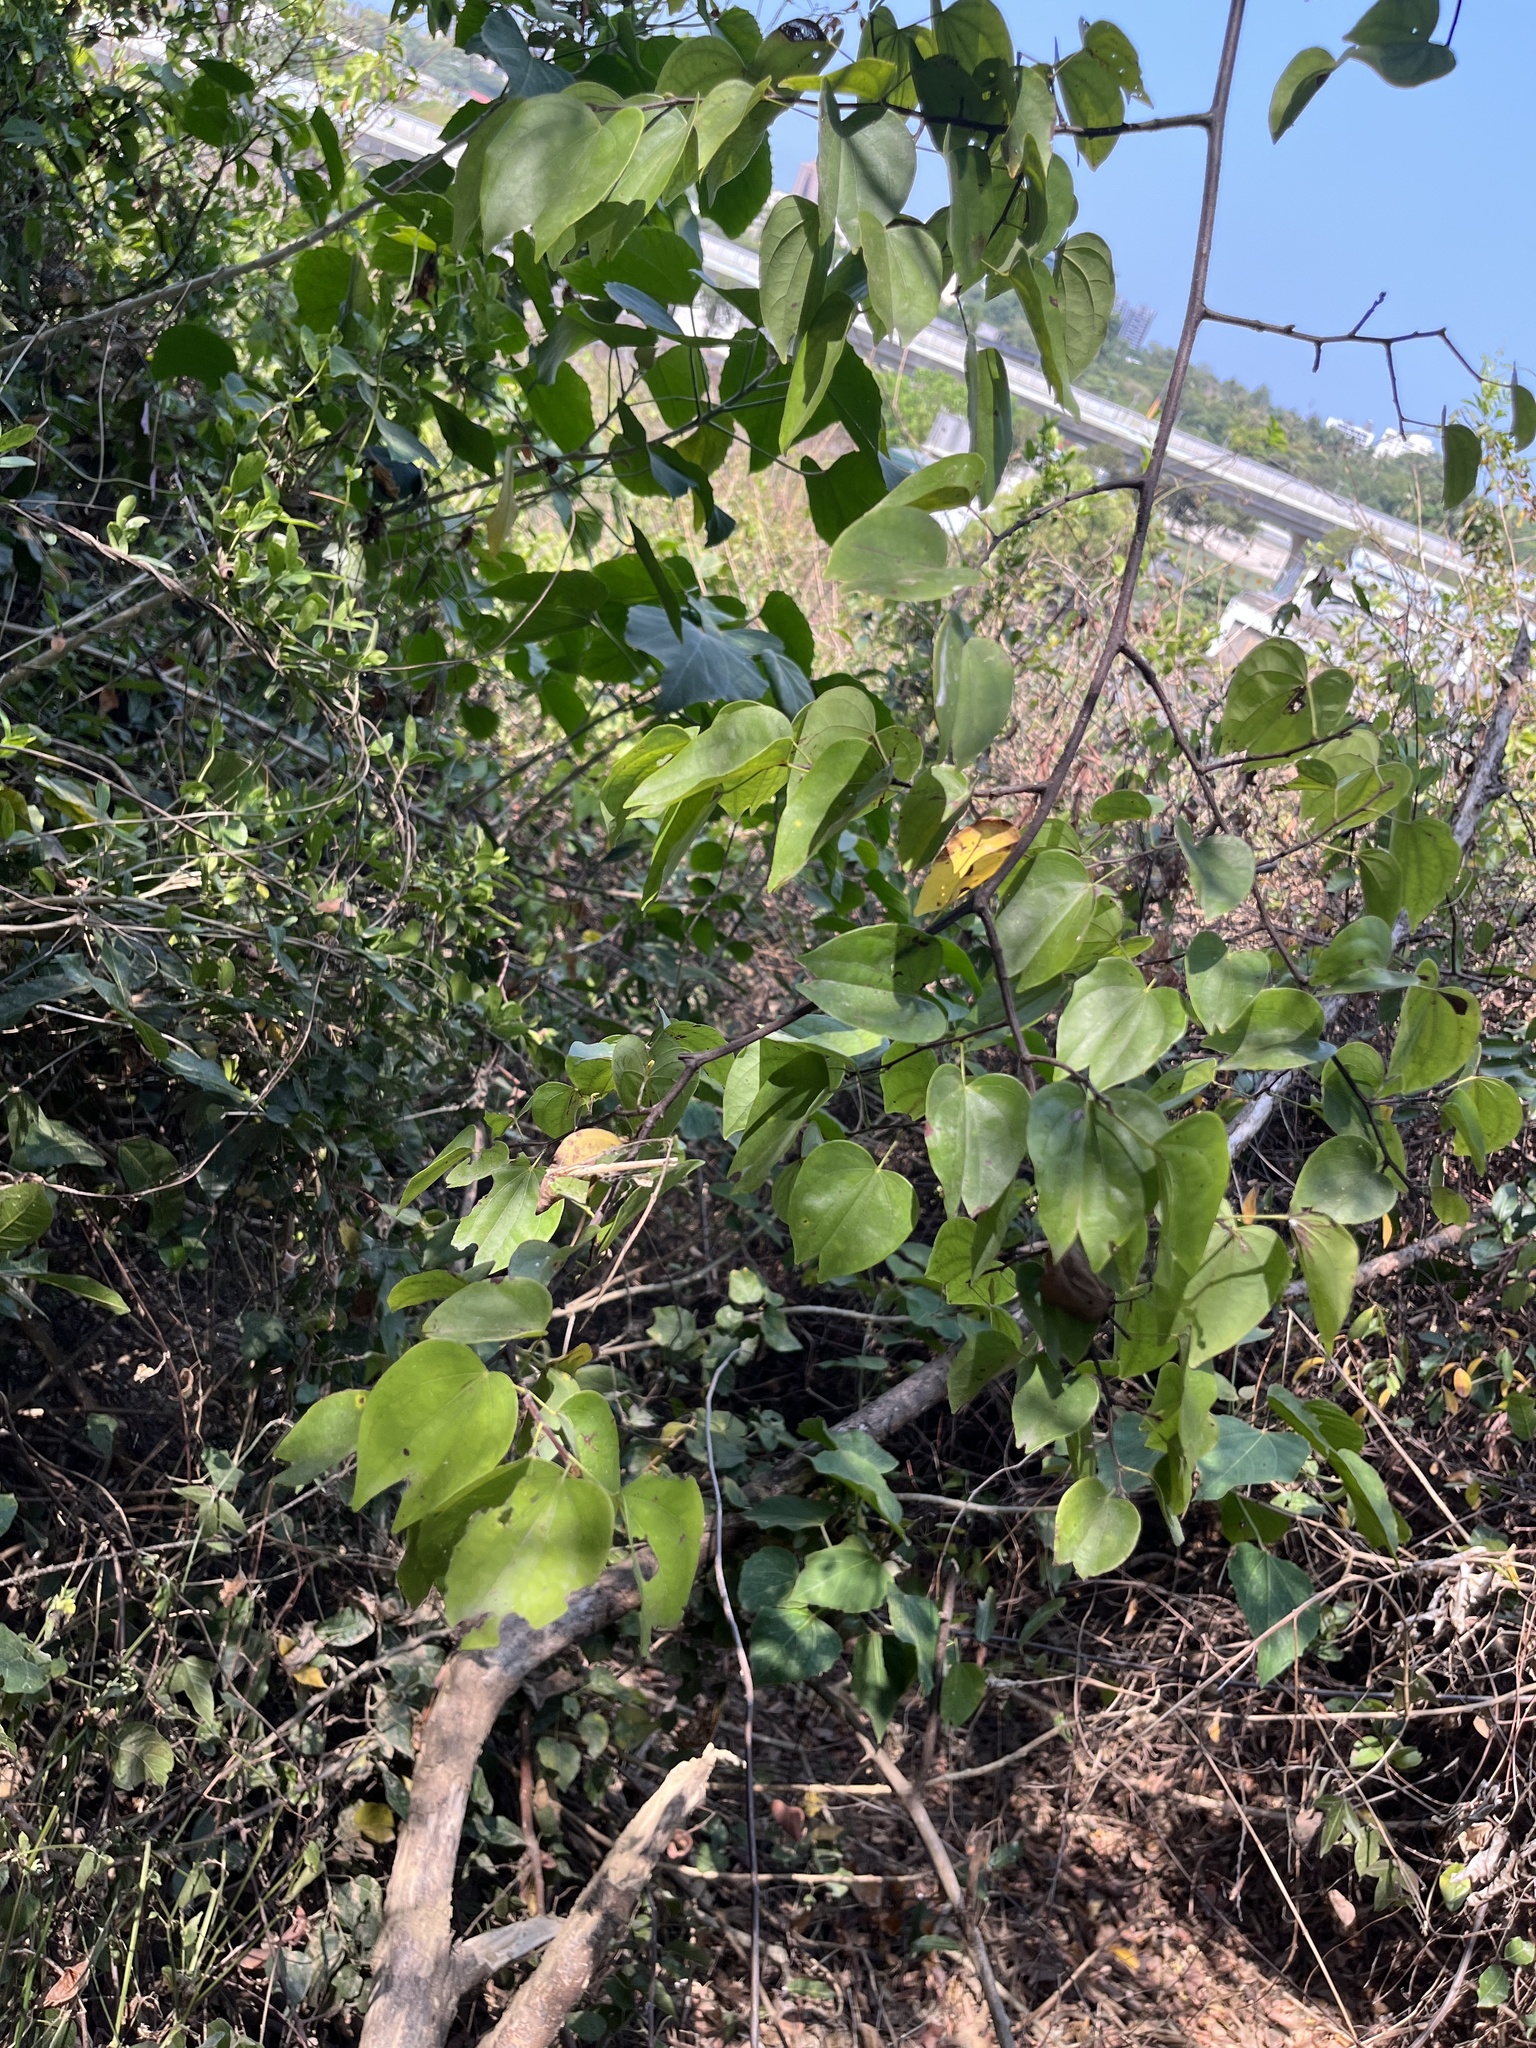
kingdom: Plantae
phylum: Tracheophyta
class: Magnoliopsida
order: Fabales
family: Fabaceae
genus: Phanera
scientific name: Phanera championii
